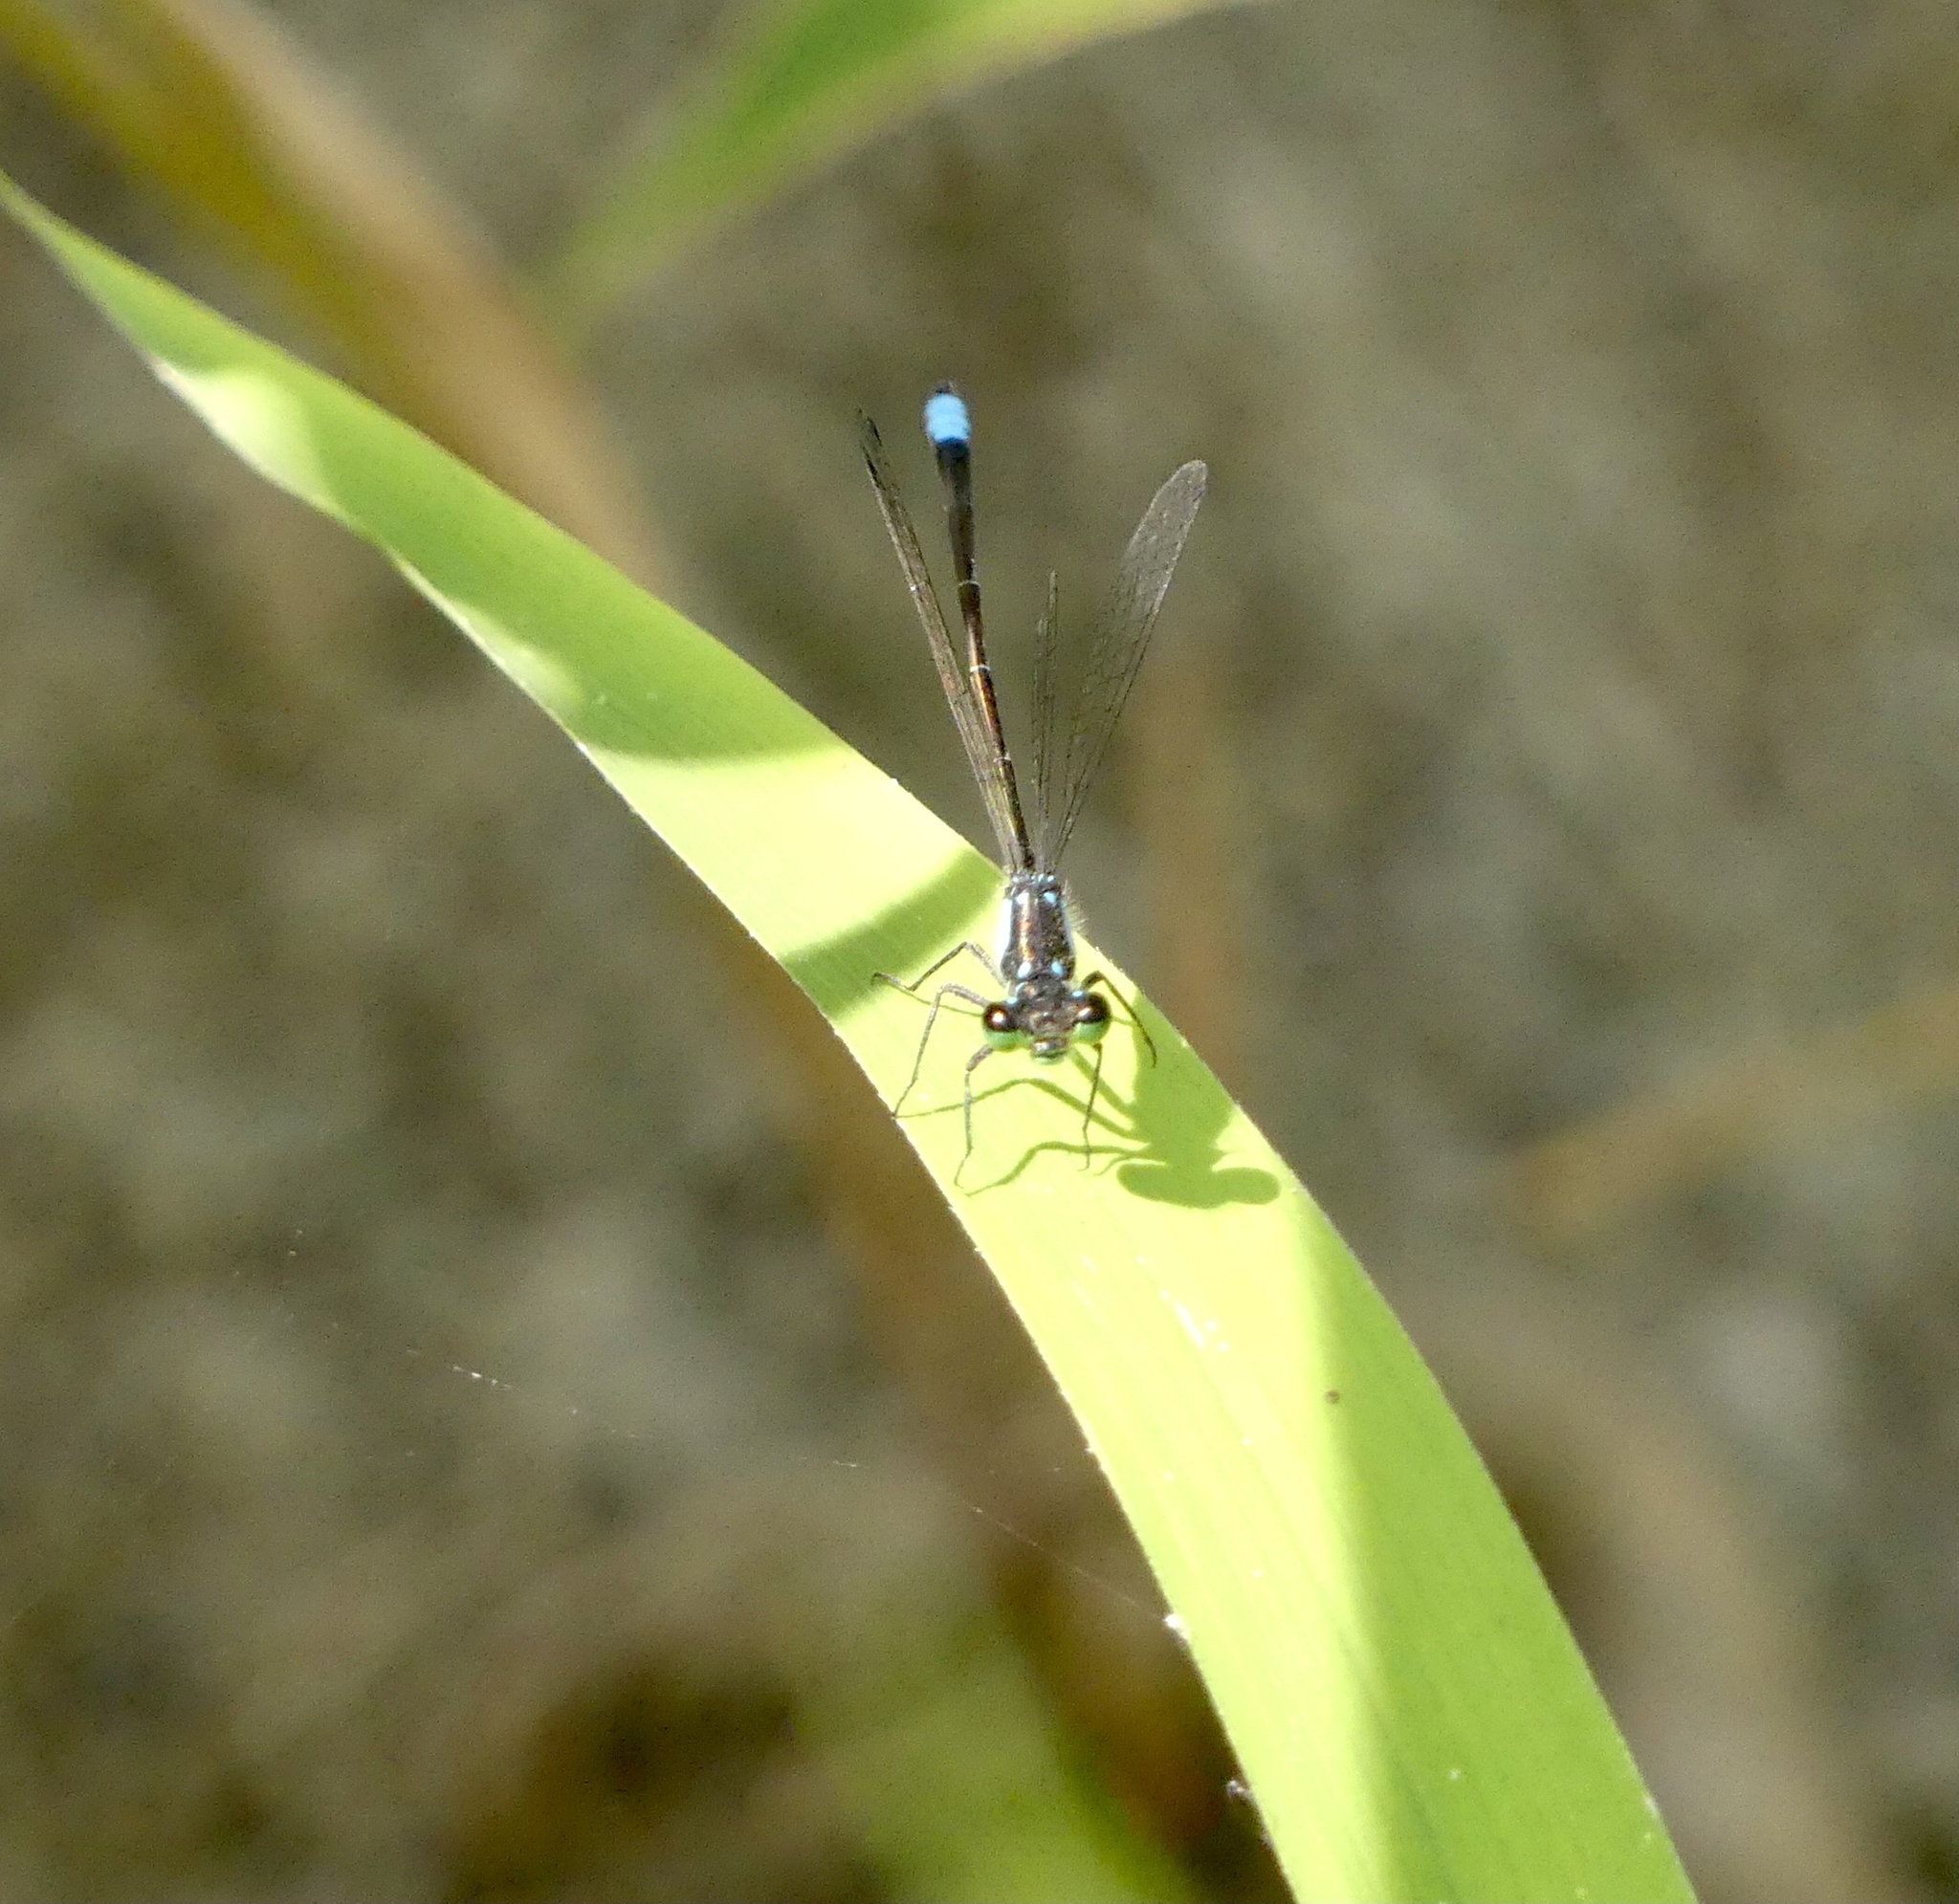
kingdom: Animalia
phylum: Arthropoda
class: Insecta
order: Odonata
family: Coenagrionidae
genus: Ischnura
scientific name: Ischnura cervula
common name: Pacific forktail
